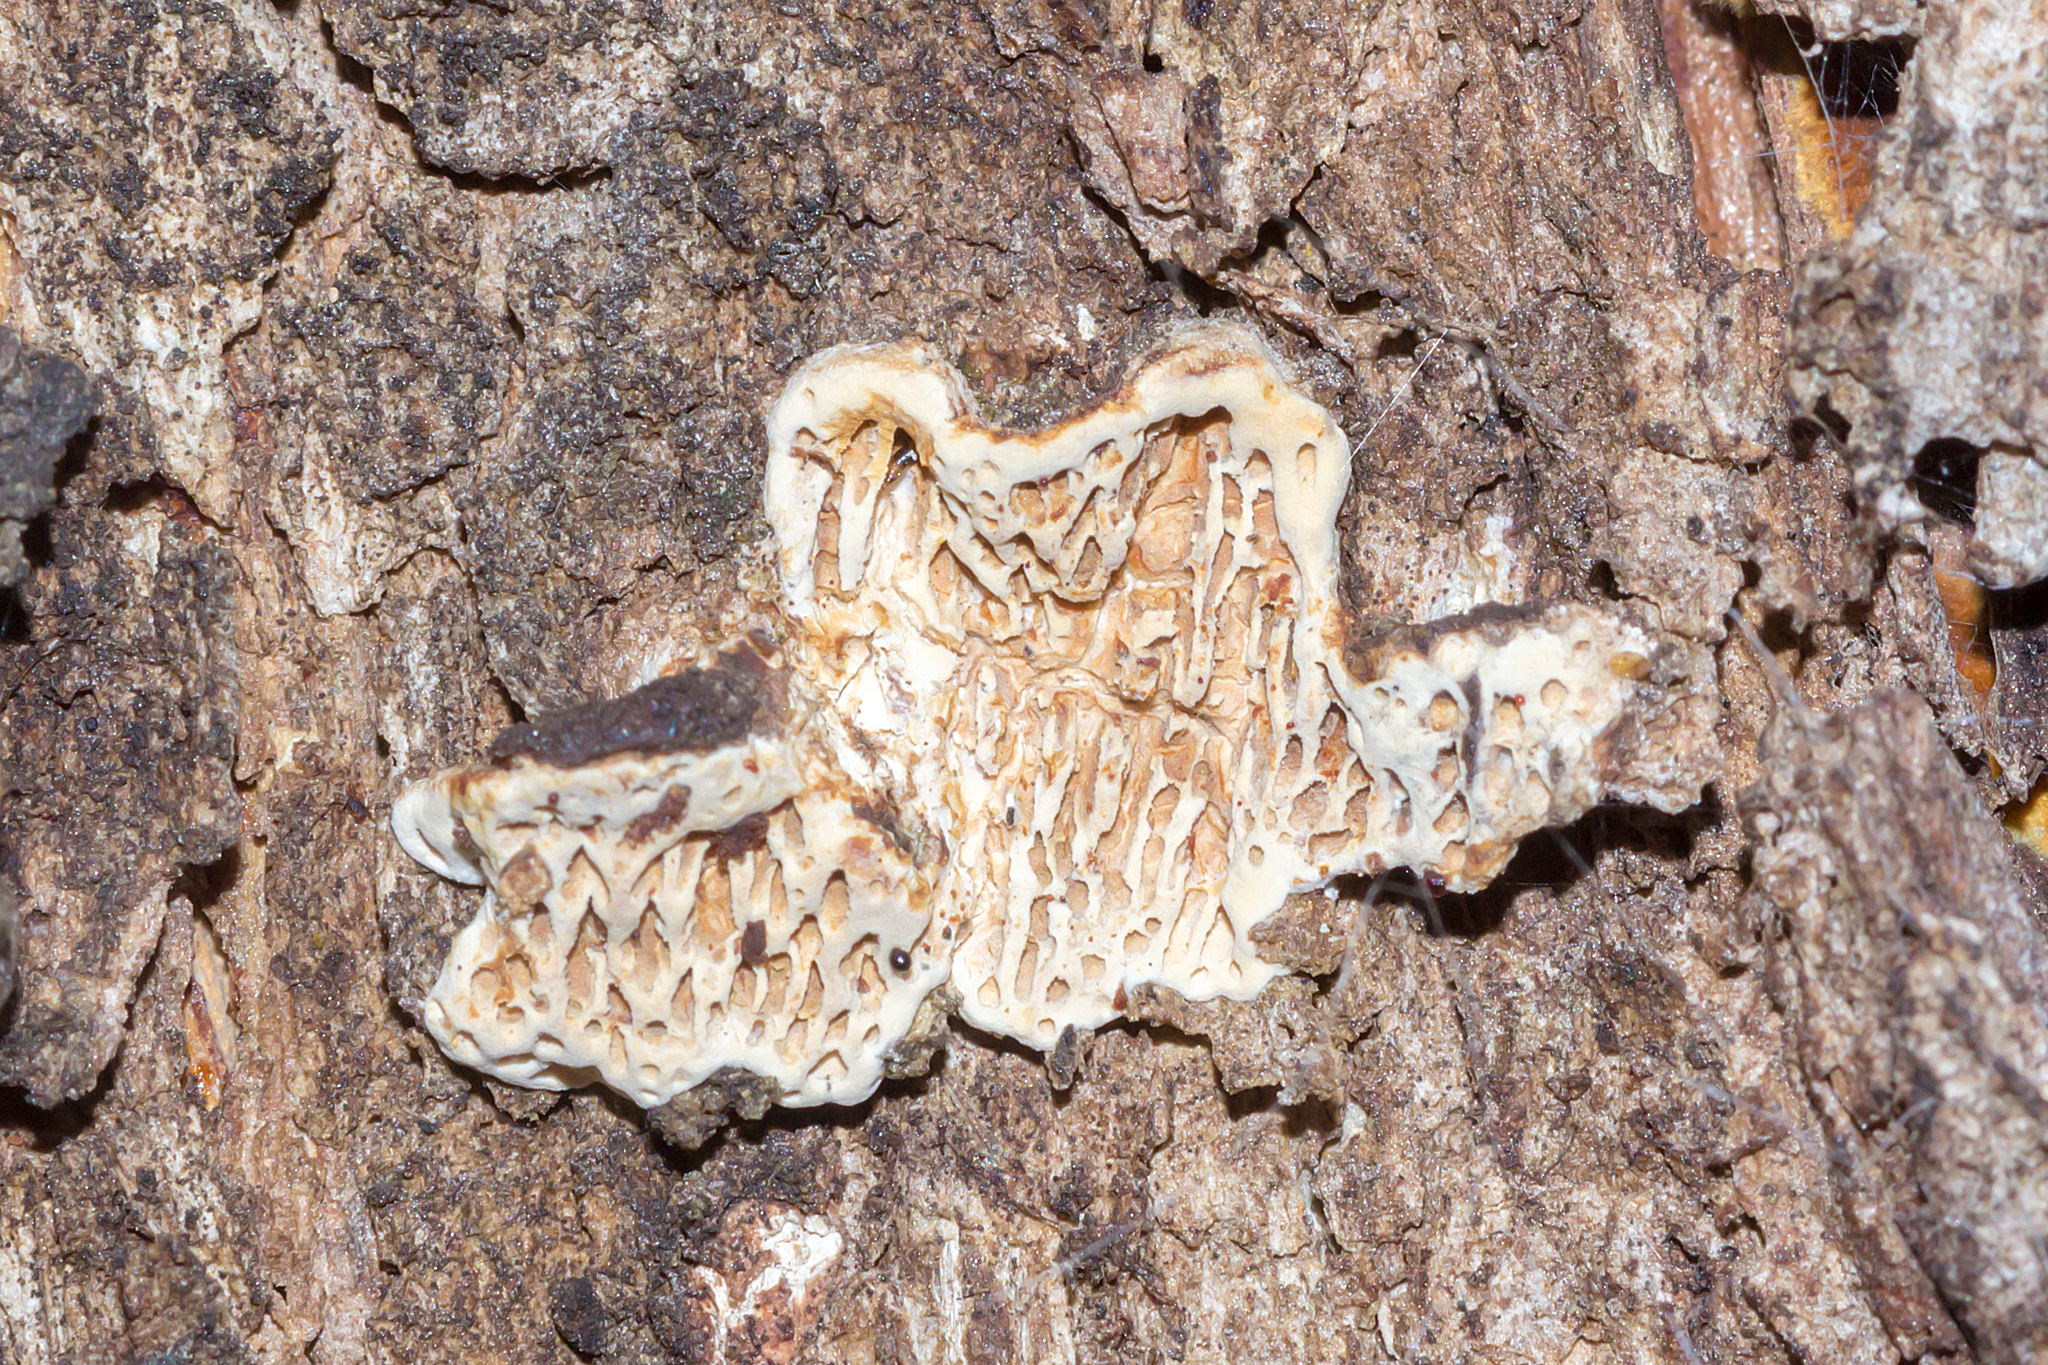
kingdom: Fungi
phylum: Basidiomycota
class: Agaricomycetes
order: Polyporales
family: Polyporaceae
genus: Hexagonia
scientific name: Hexagonia vesparia
